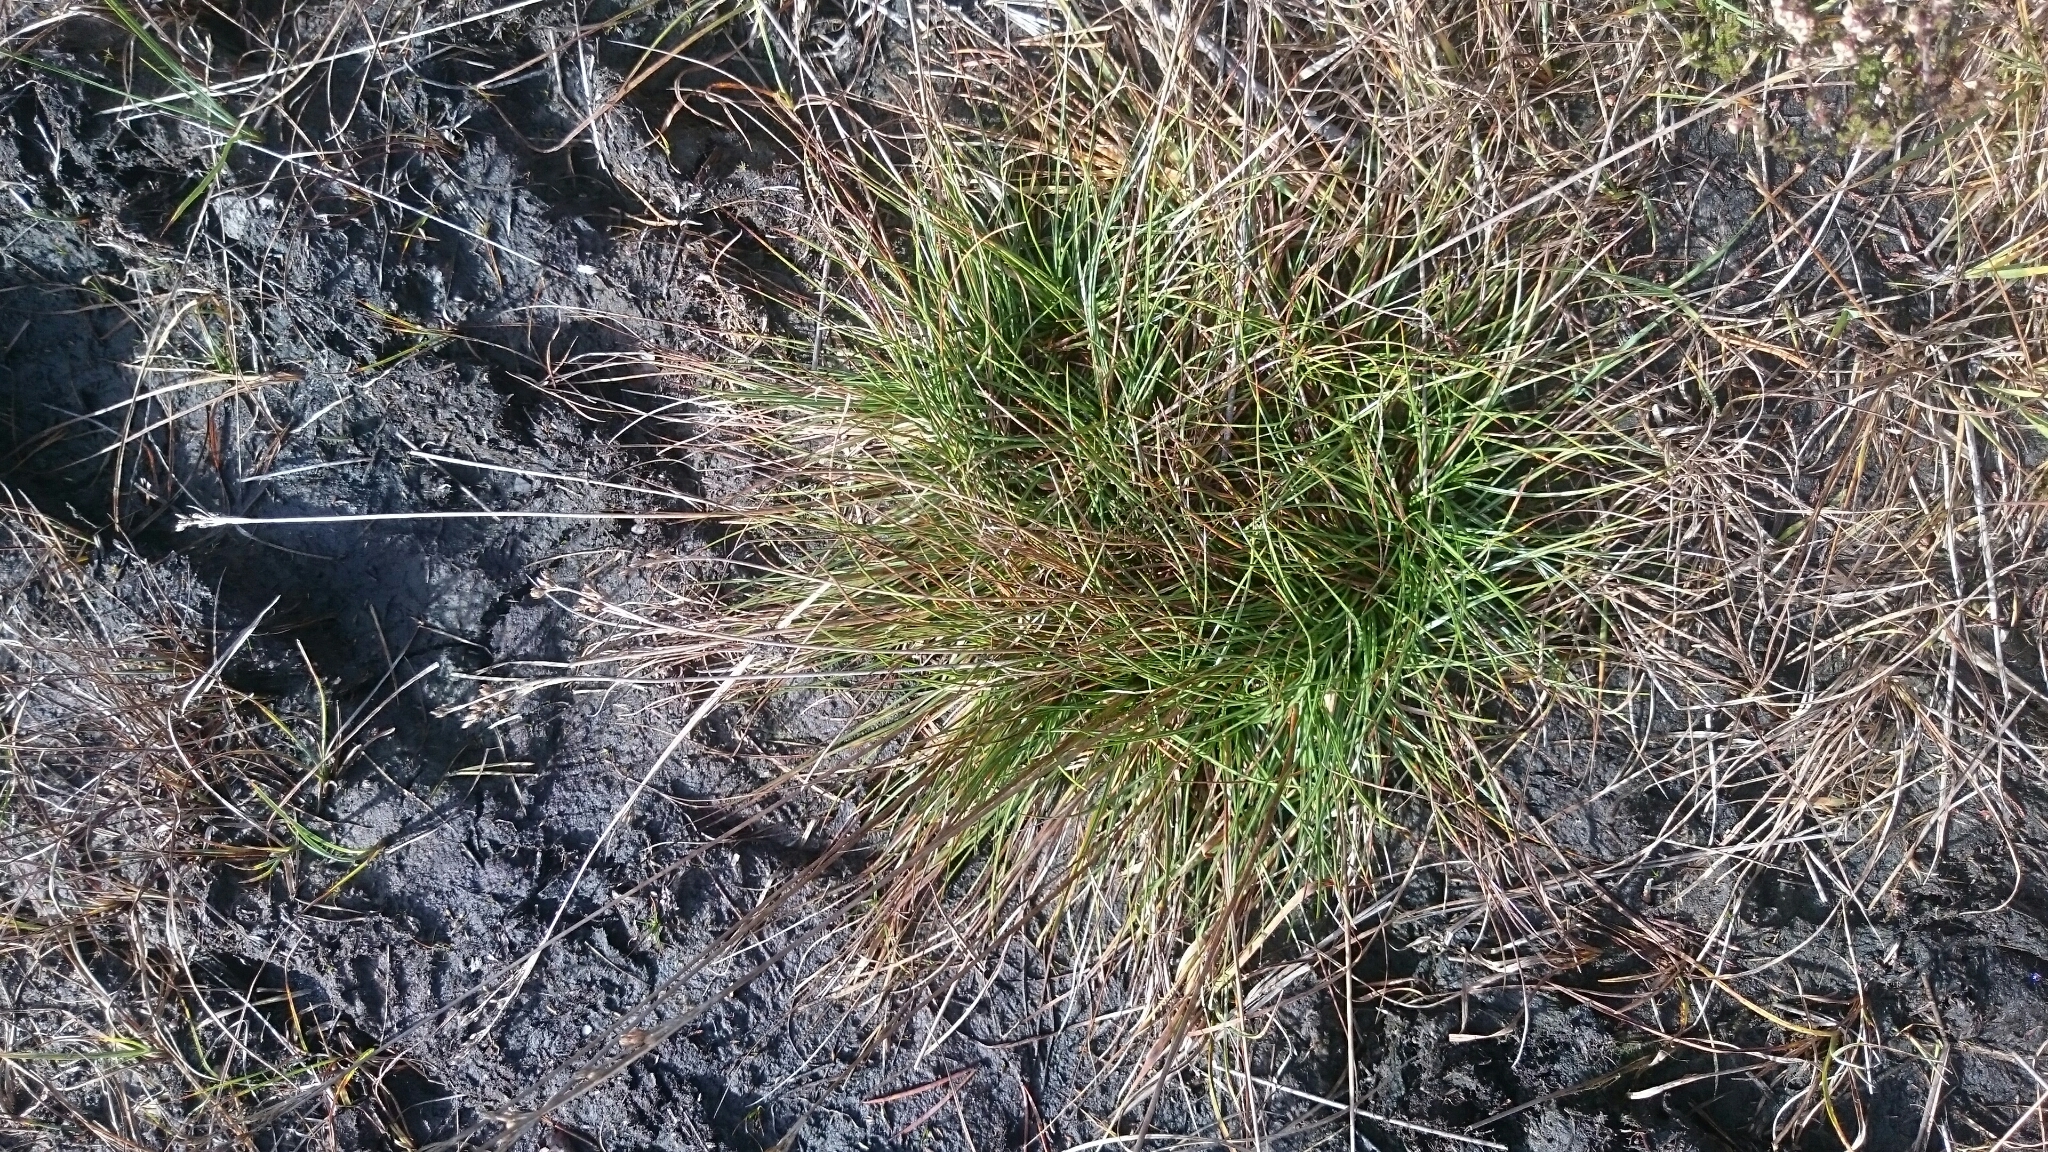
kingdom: Plantae
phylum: Tracheophyta
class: Liliopsida
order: Poales
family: Juncaceae
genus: Juncus
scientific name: Juncus squarrosus
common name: Heath rush
